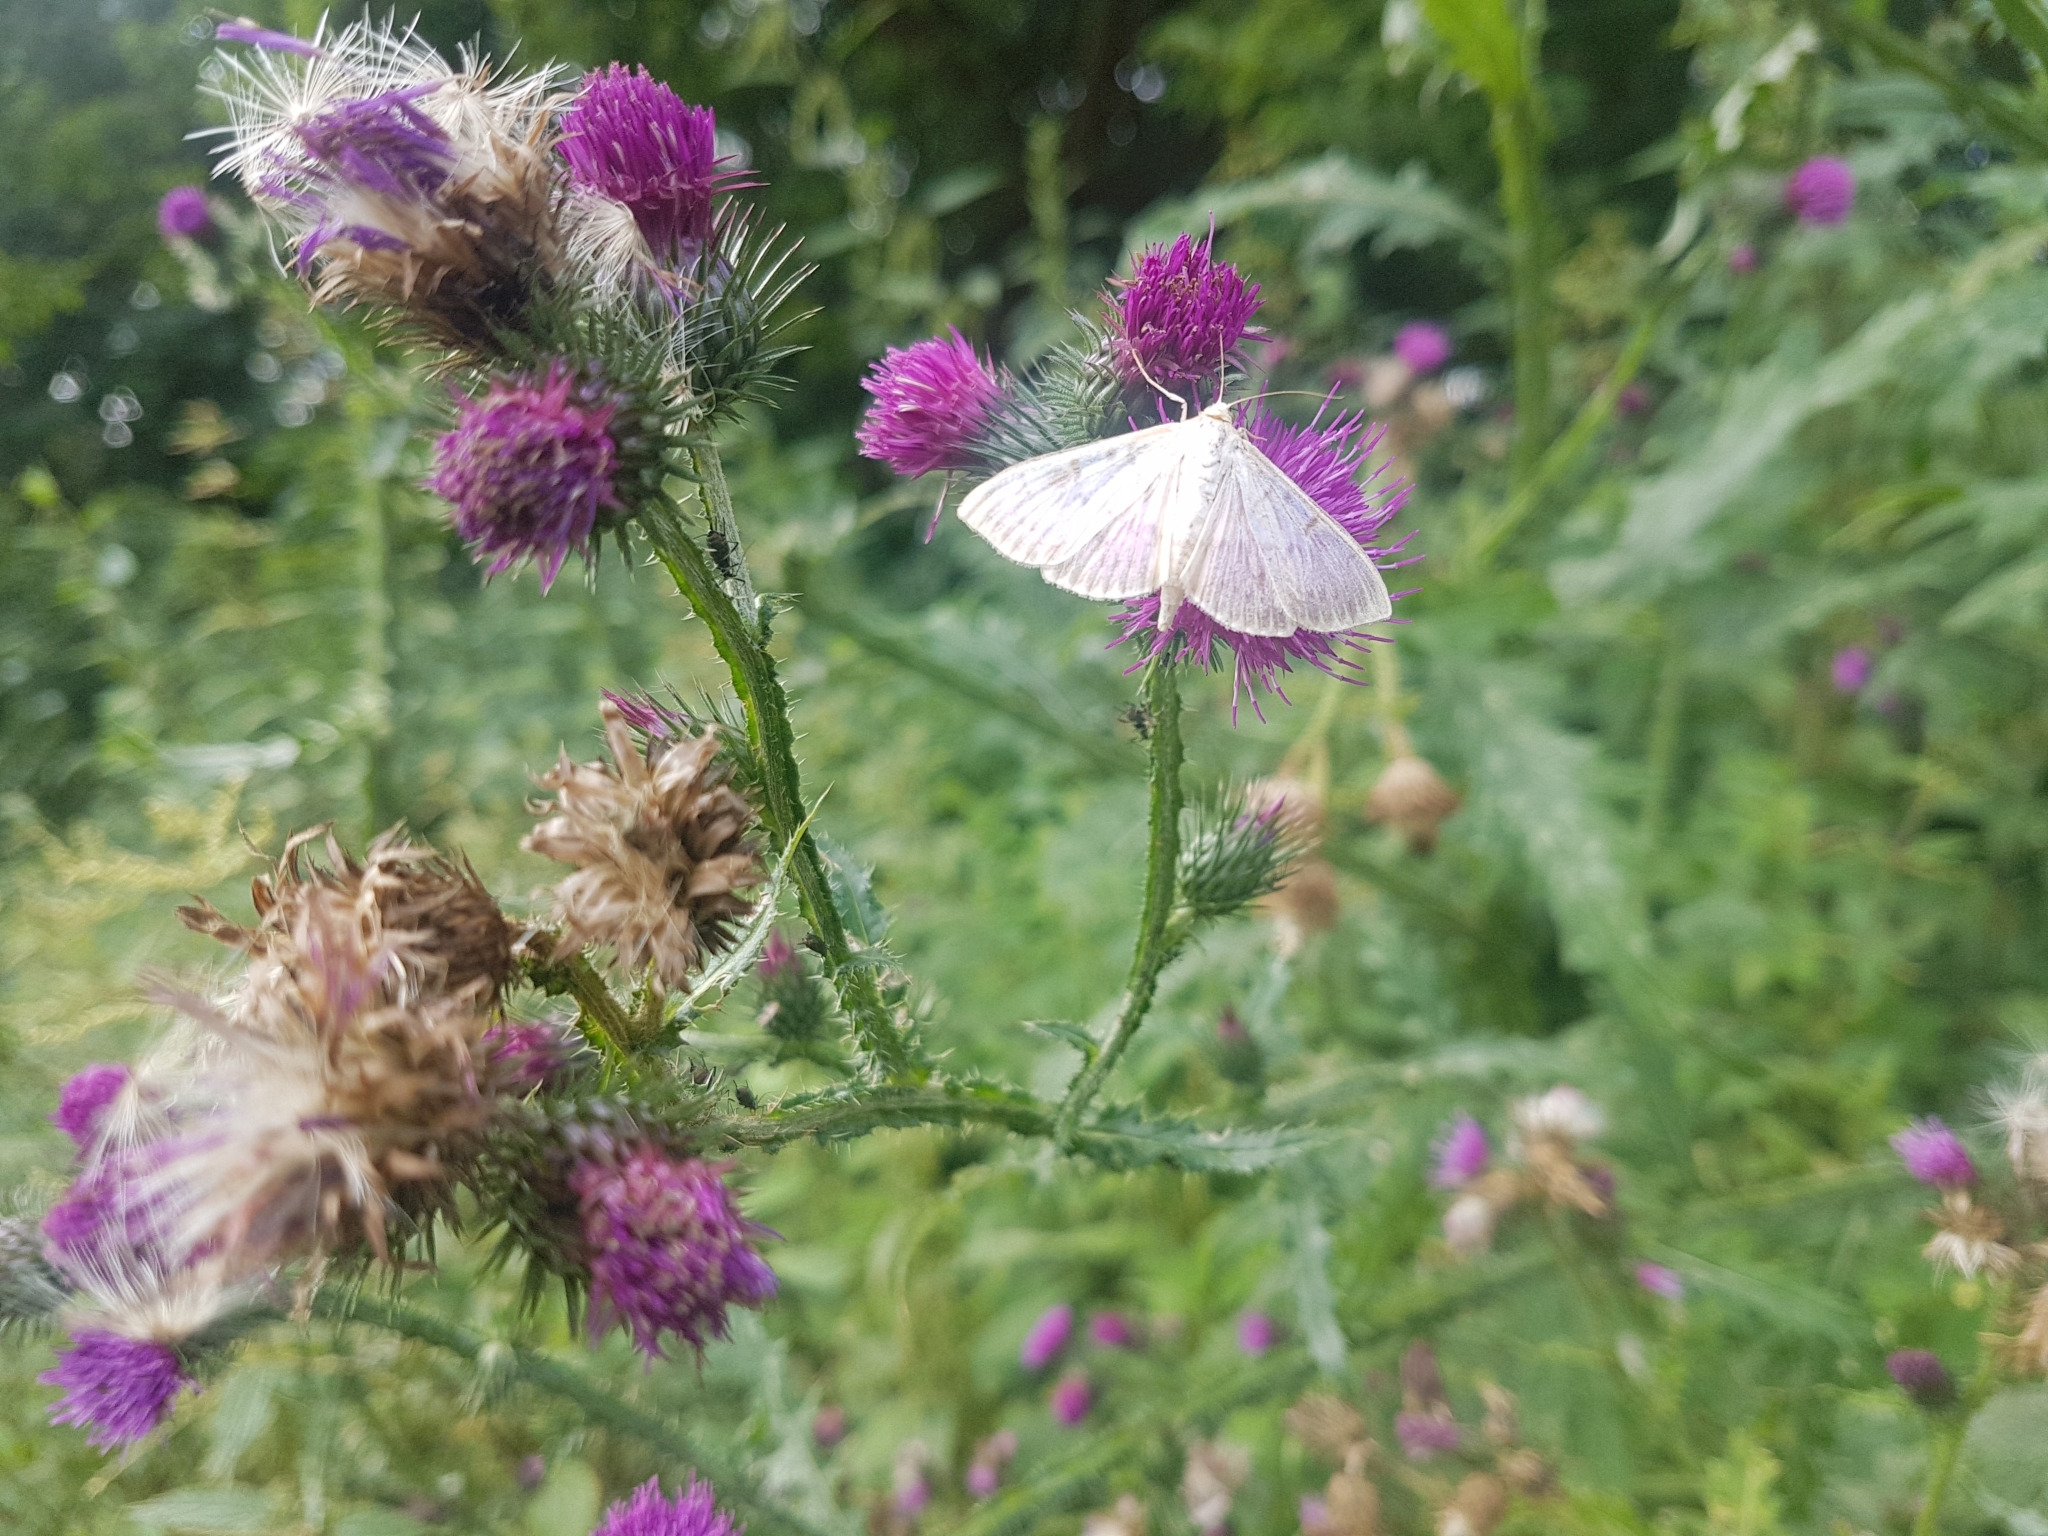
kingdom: Animalia
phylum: Arthropoda
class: Insecta
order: Lepidoptera
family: Crambidae
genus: Patania
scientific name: Patania ruralis
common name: Mother of pearl
